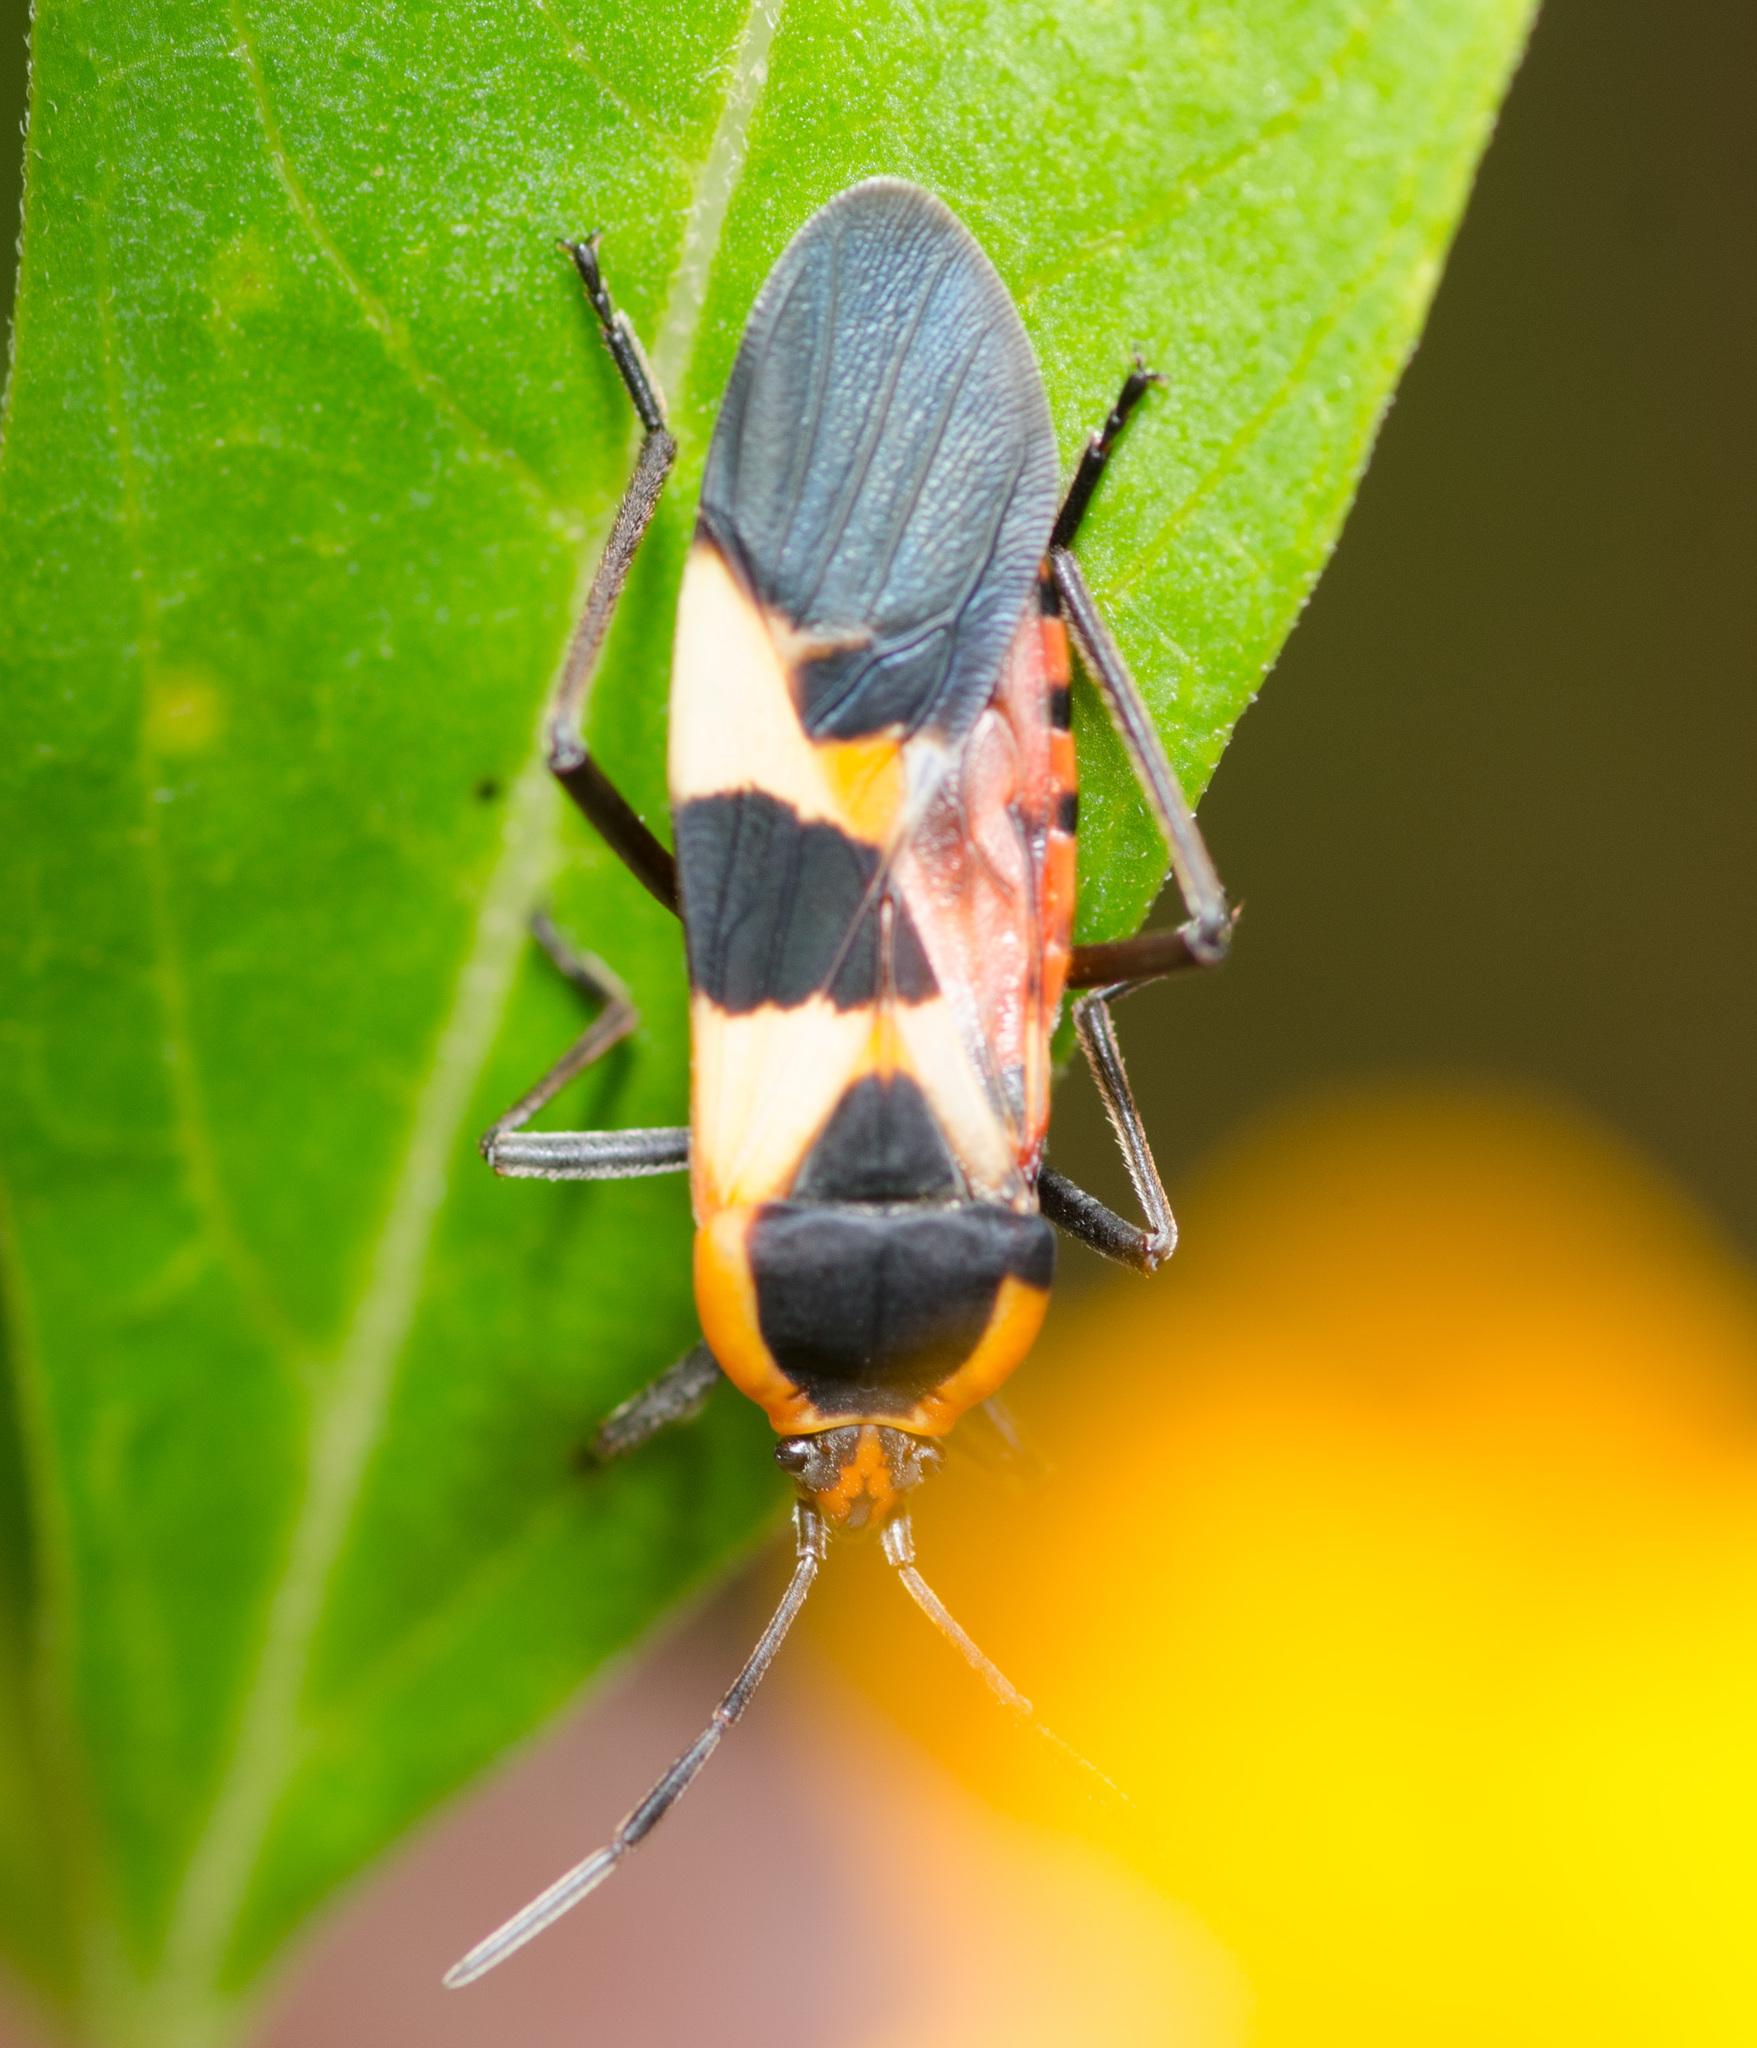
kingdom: Animalia
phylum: Arthropoda
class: Insecta
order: Hemiptera
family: Lygaeidae
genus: Oncopeltus
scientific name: Oncopeltus fasciatus
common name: Large milkweed bug
